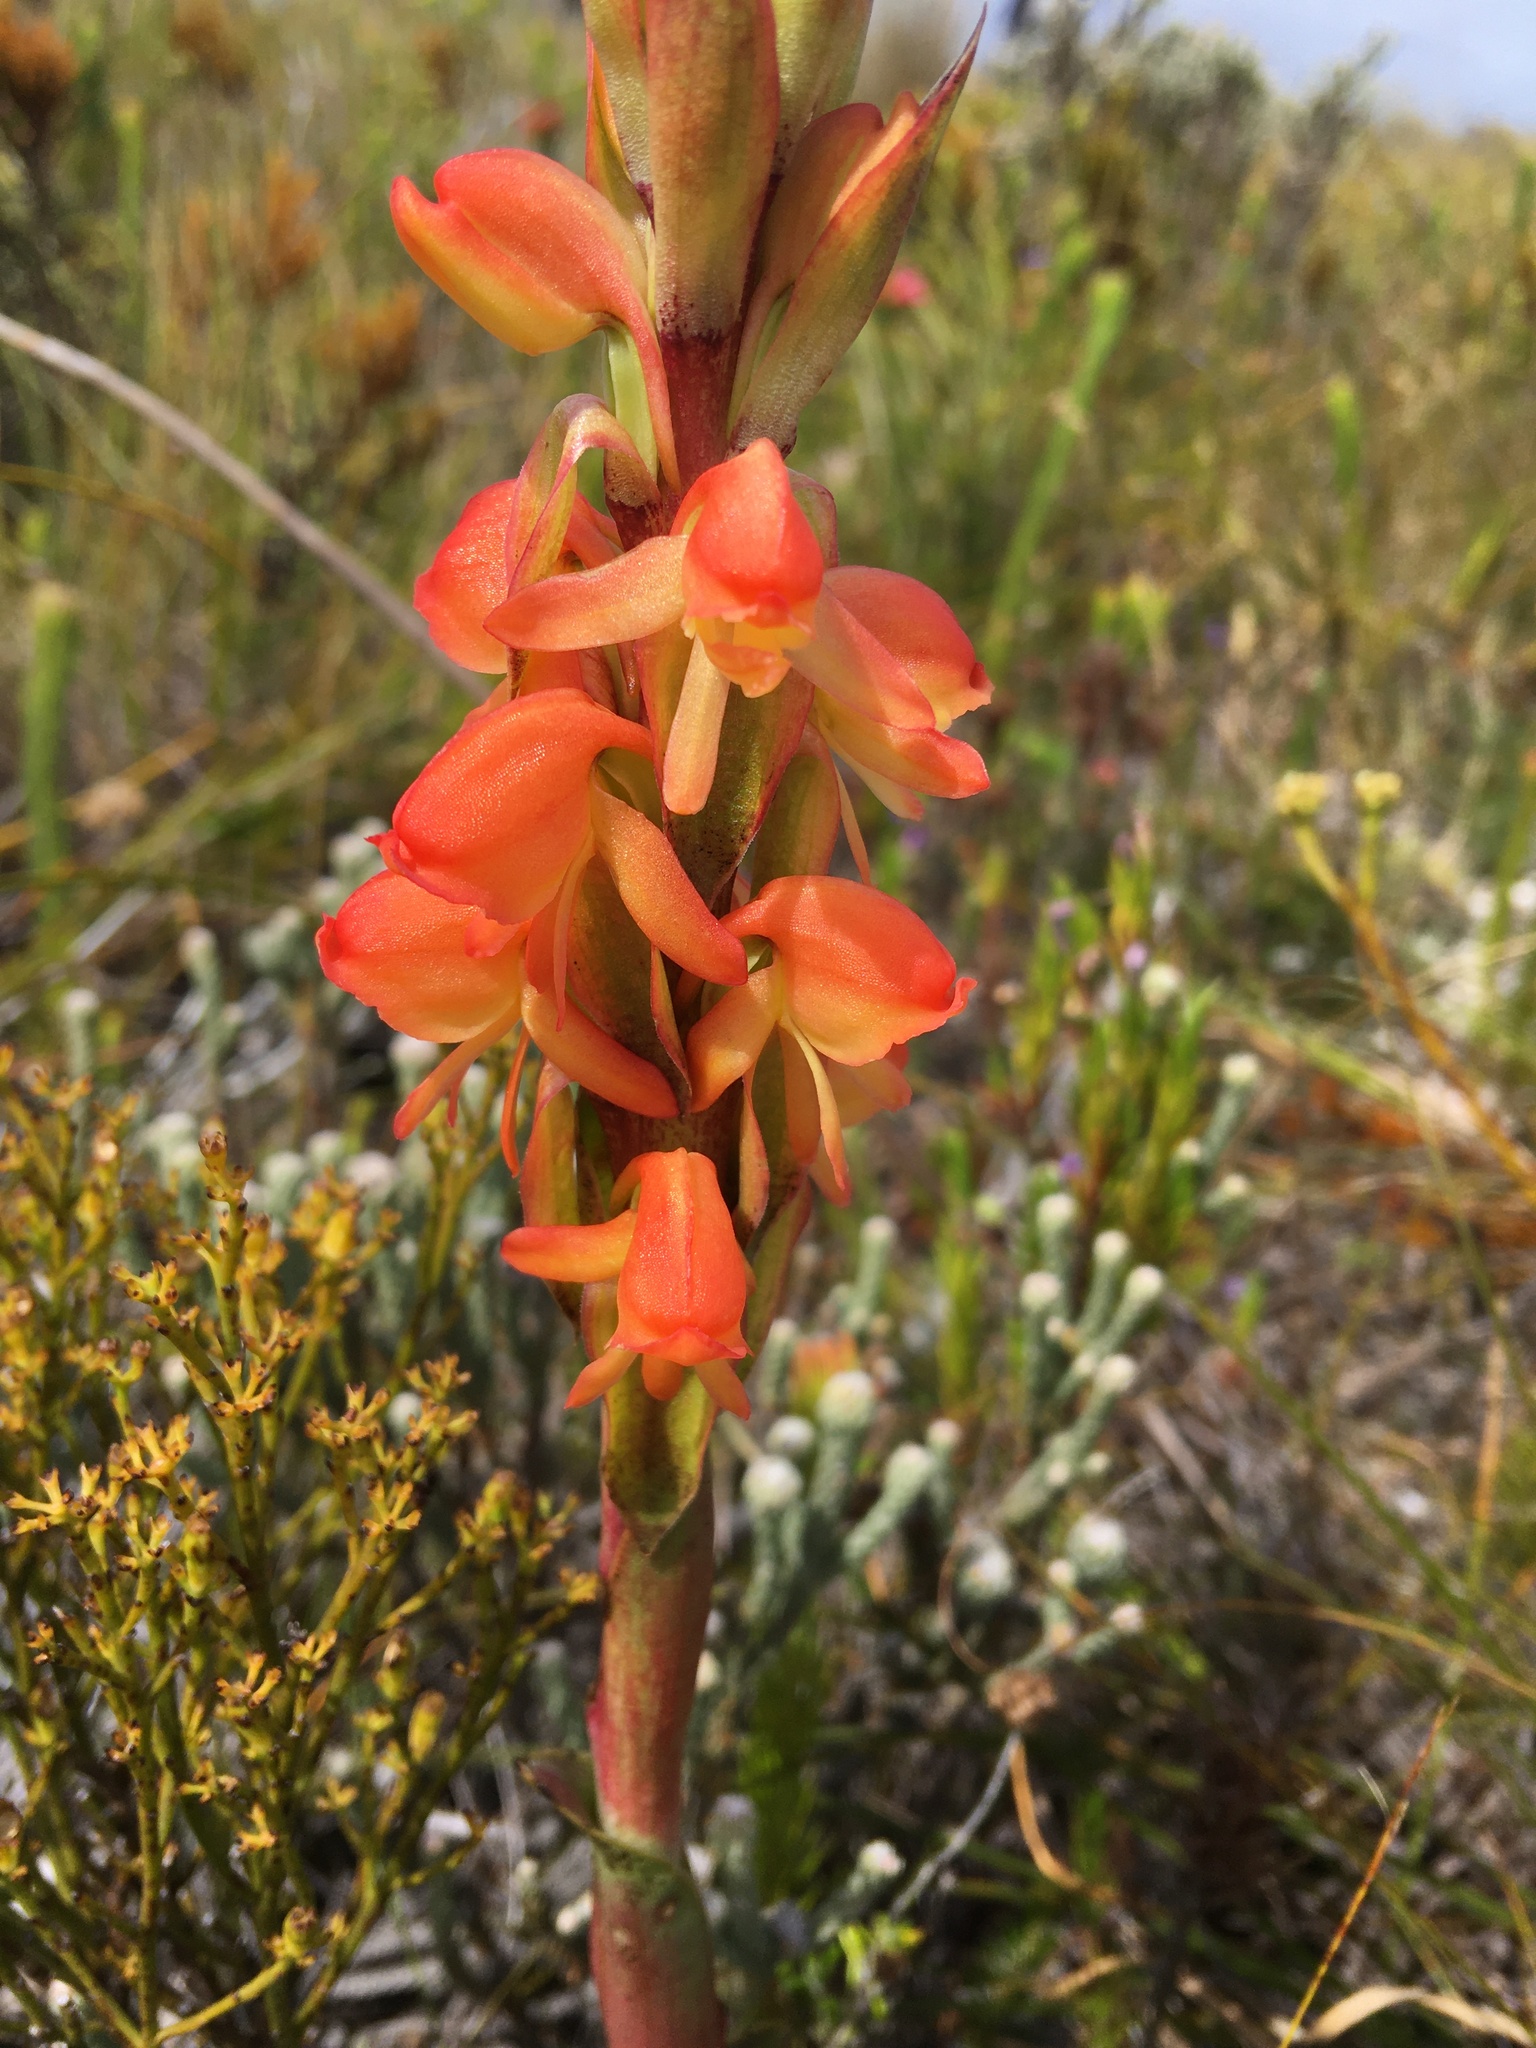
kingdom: Plantae
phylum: Tracheophyta
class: Liliopsida
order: Asparagales
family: Orchidaceae
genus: Satyrium
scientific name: Satyrium coriifolium
